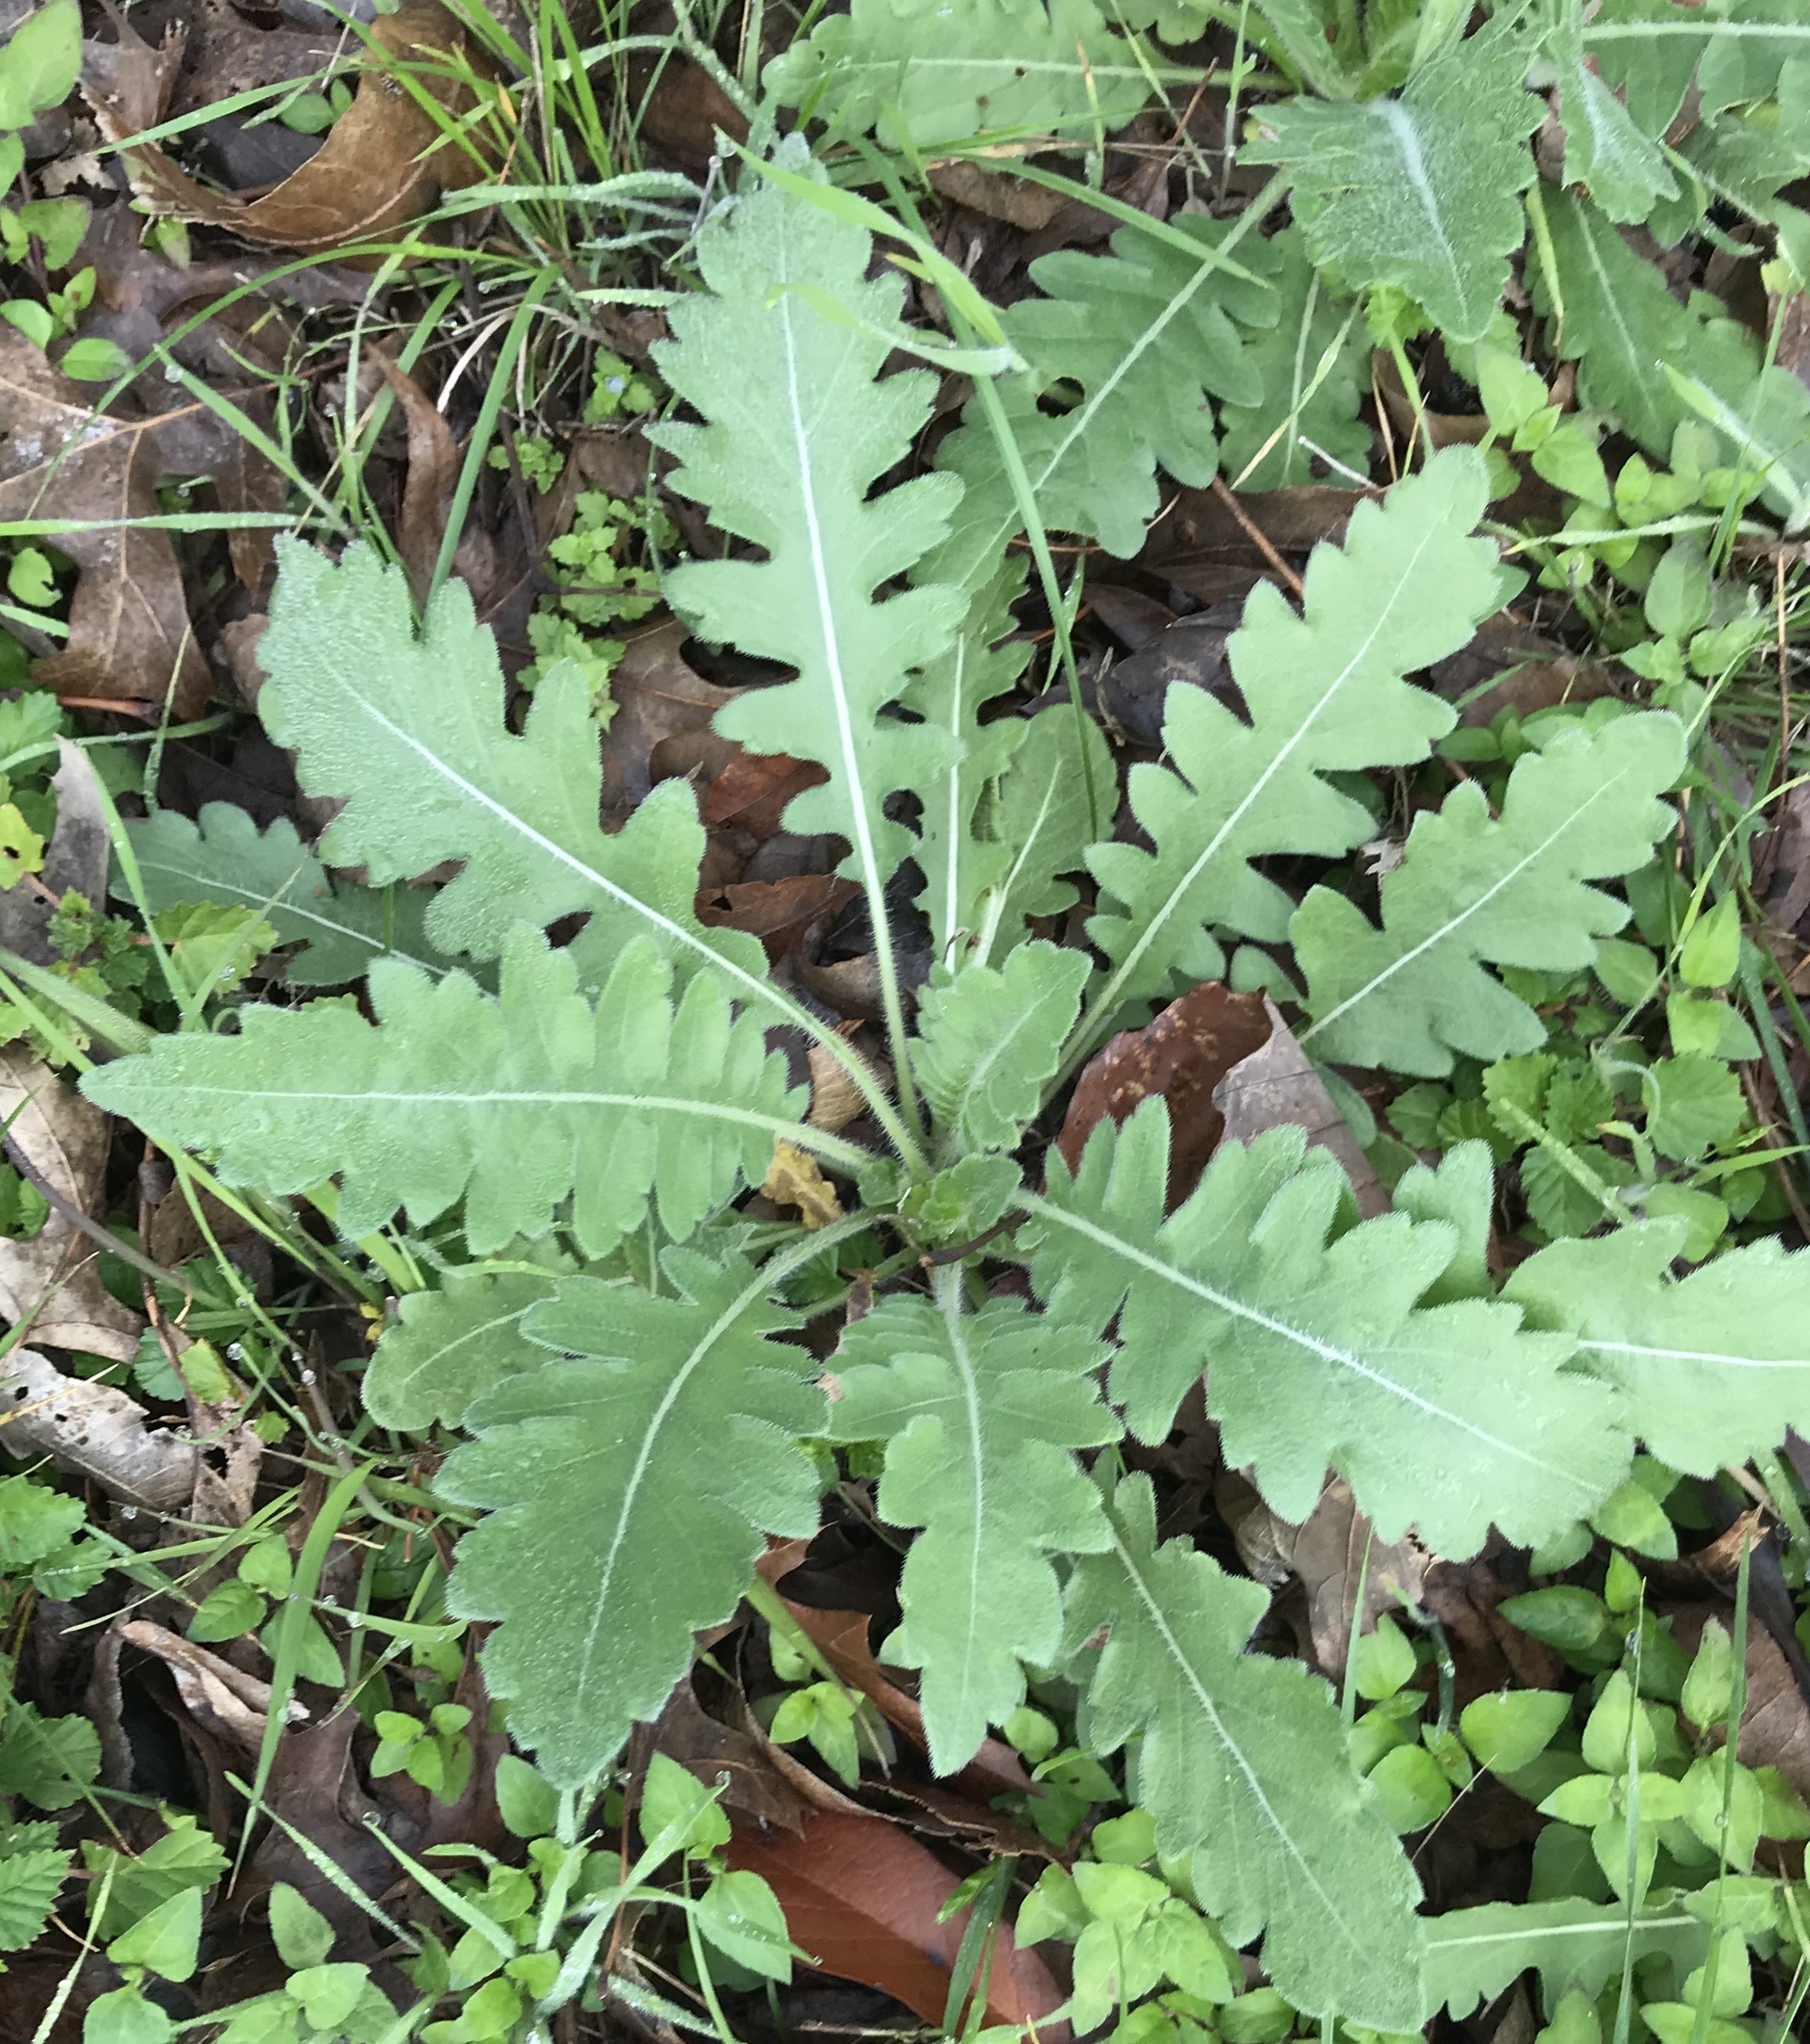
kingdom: Plantae
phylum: Tracheophyta
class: Magnoliopsida
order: Asterales
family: Asteraceae
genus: Engelmannia
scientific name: Engelmannia peristenia
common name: Engelmann's daisy
